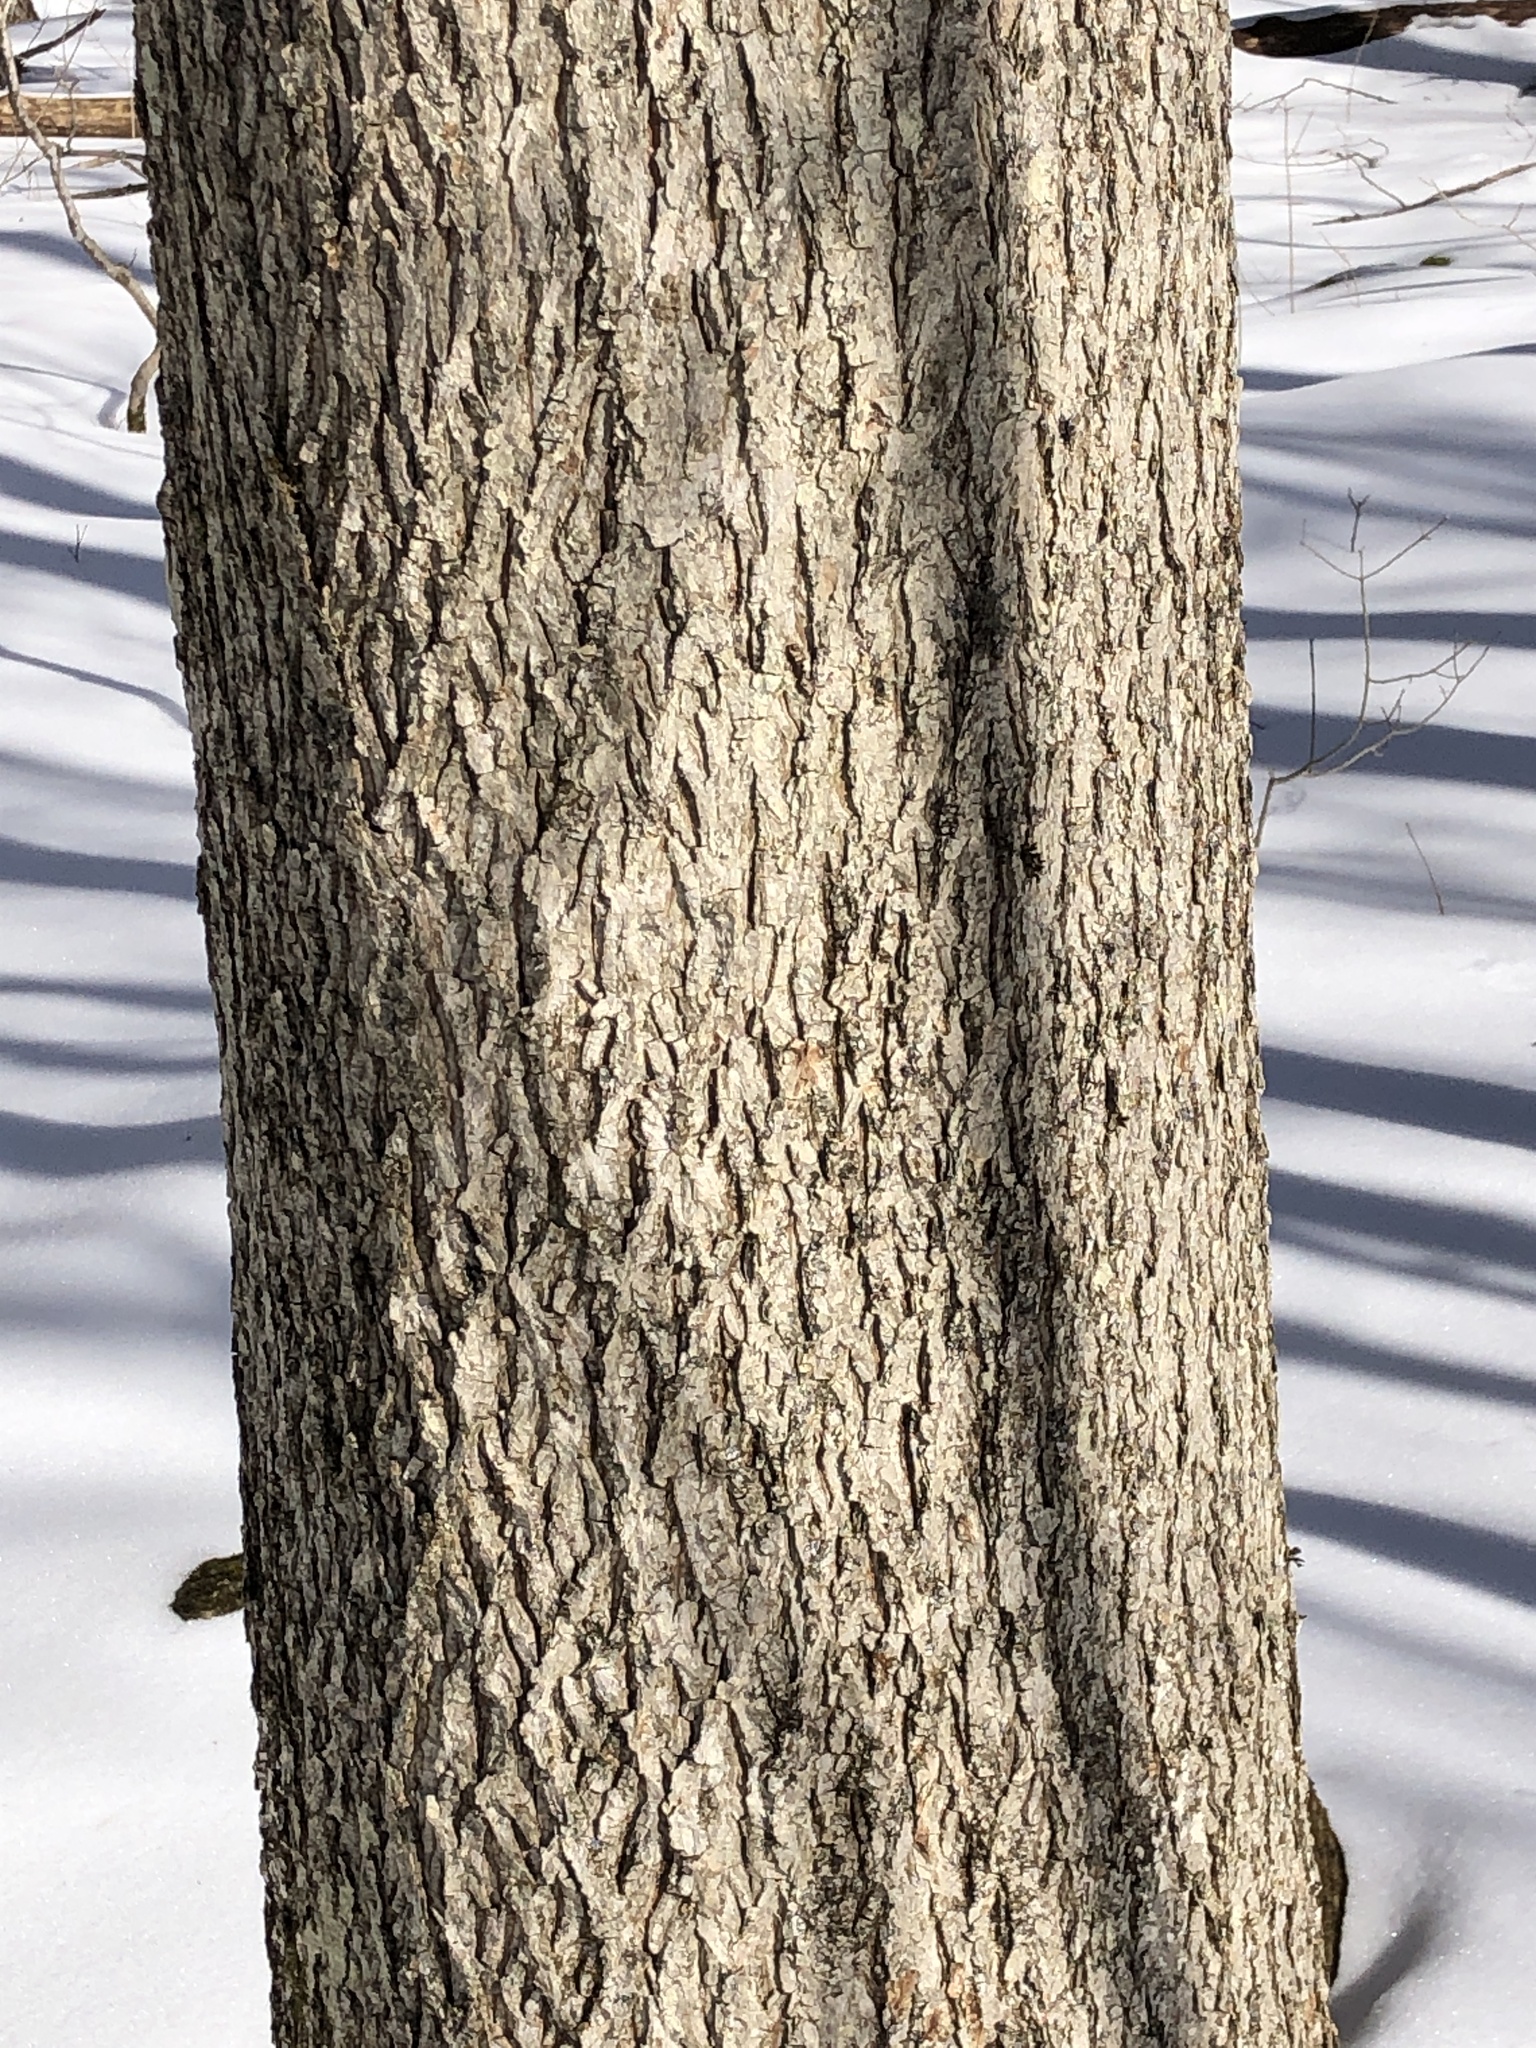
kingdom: Plantae
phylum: Tracheophyta
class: Magnoliopsida
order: Fagales
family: Juglandaceae
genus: Carya
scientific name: Carya cordiformis
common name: Bitternut hickory
